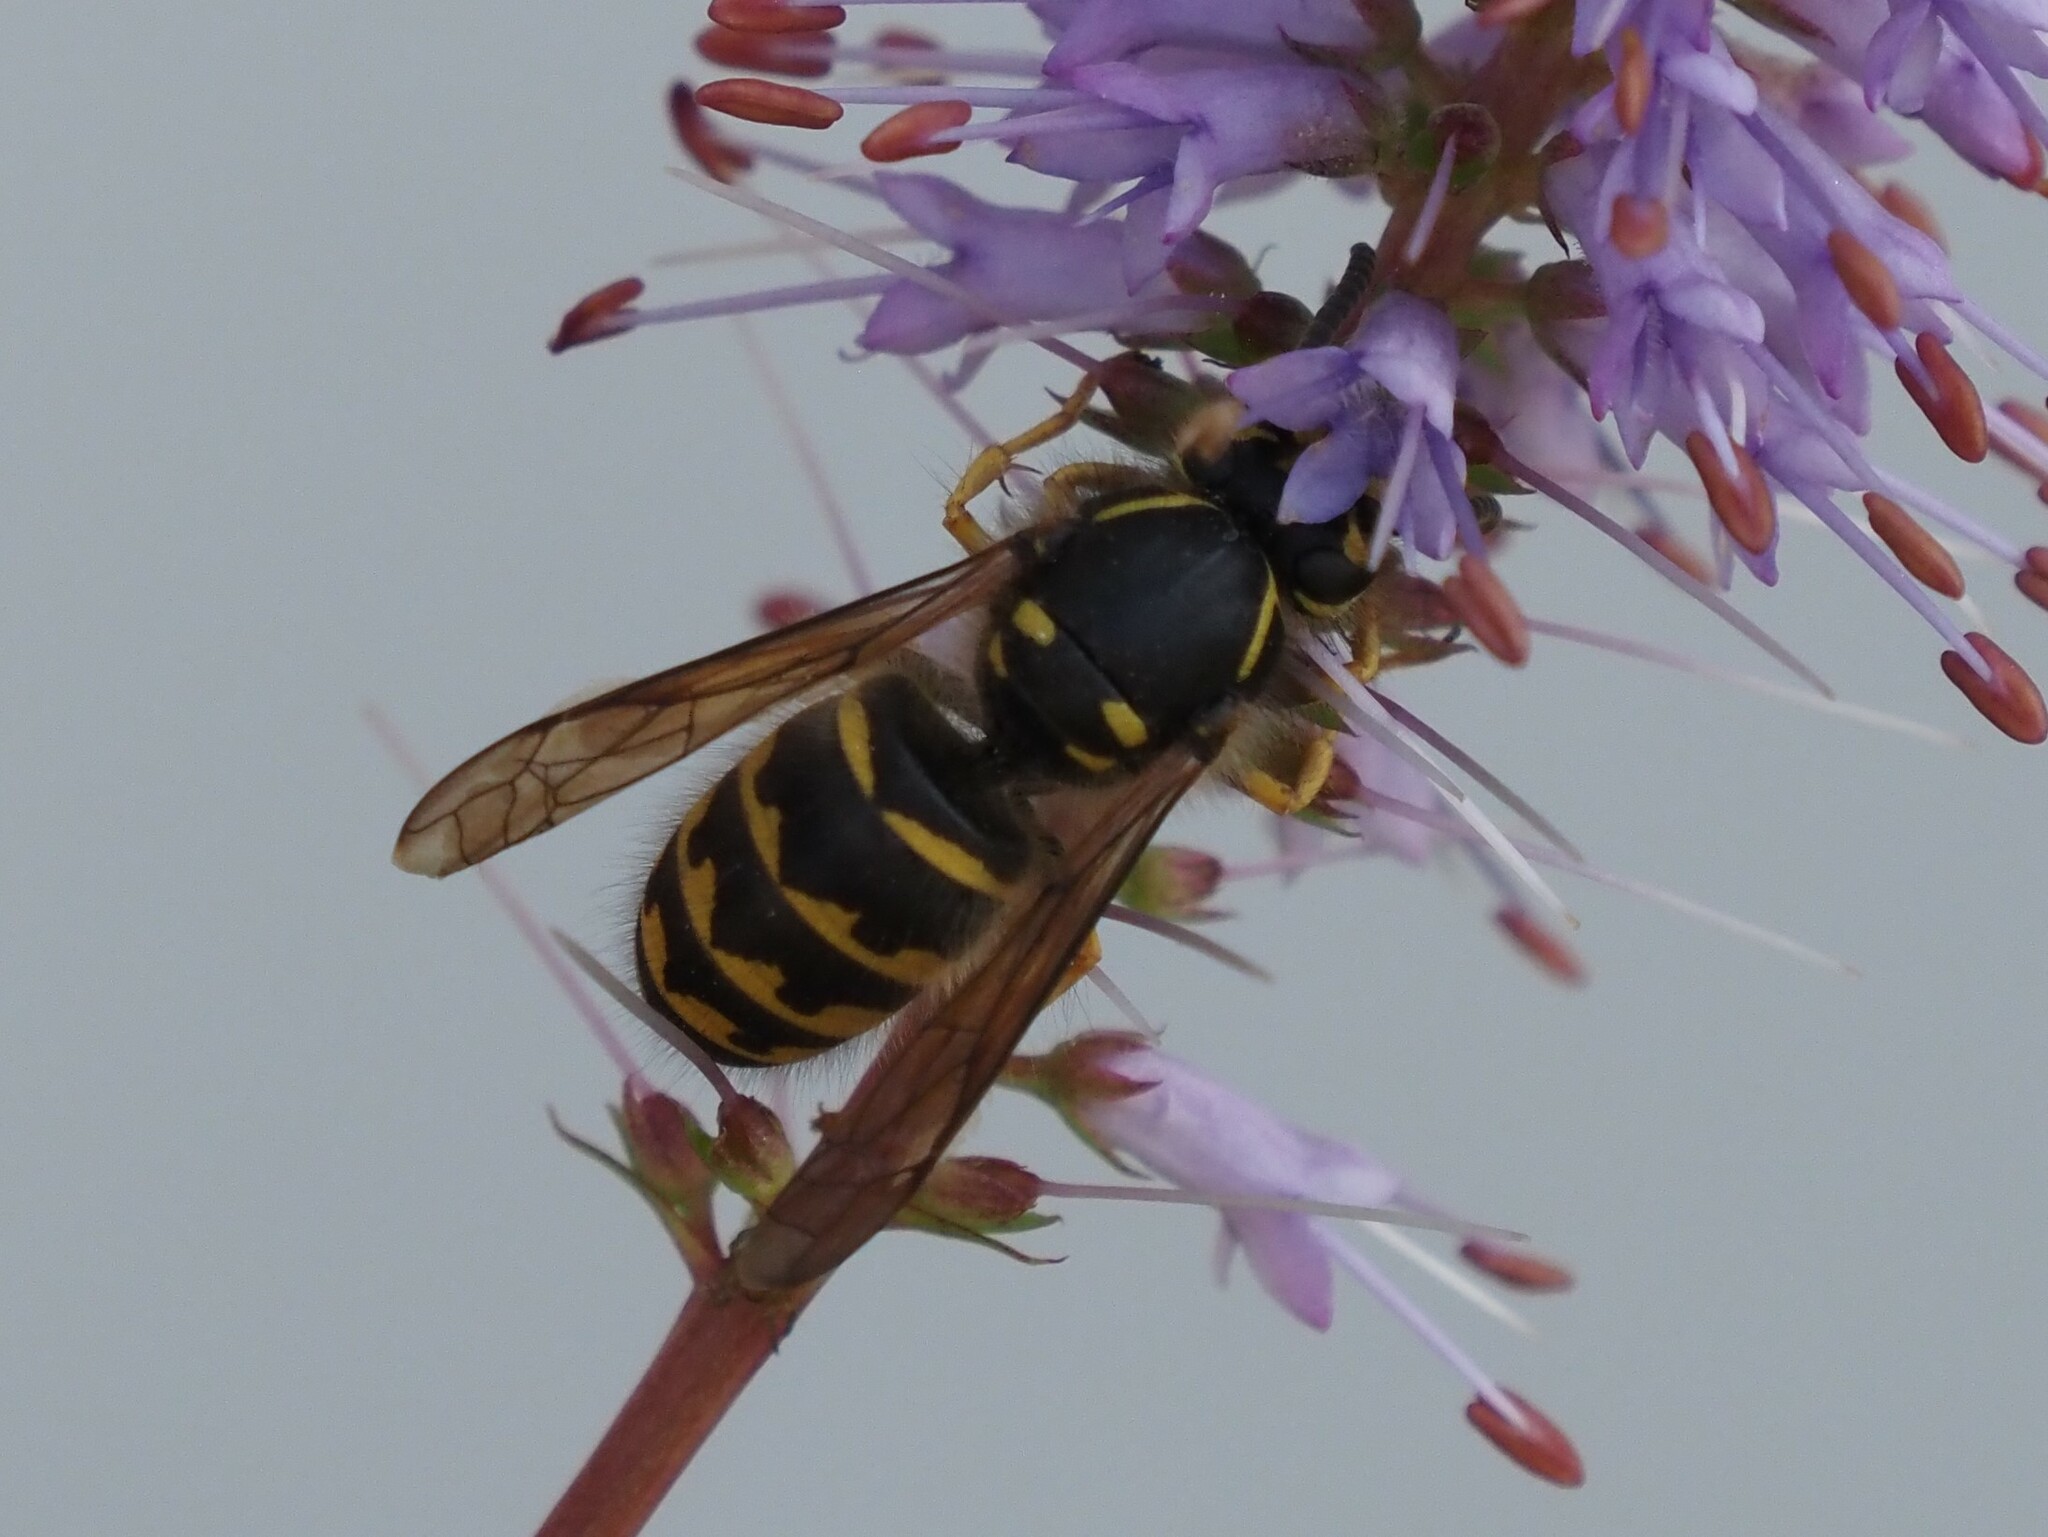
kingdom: Animalia
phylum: Arthropoda
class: Insecta
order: Hymenoptera
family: Vespidae
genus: Dolichovespula
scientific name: Dolichovespula arenaria
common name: Aerial yellowjacket
